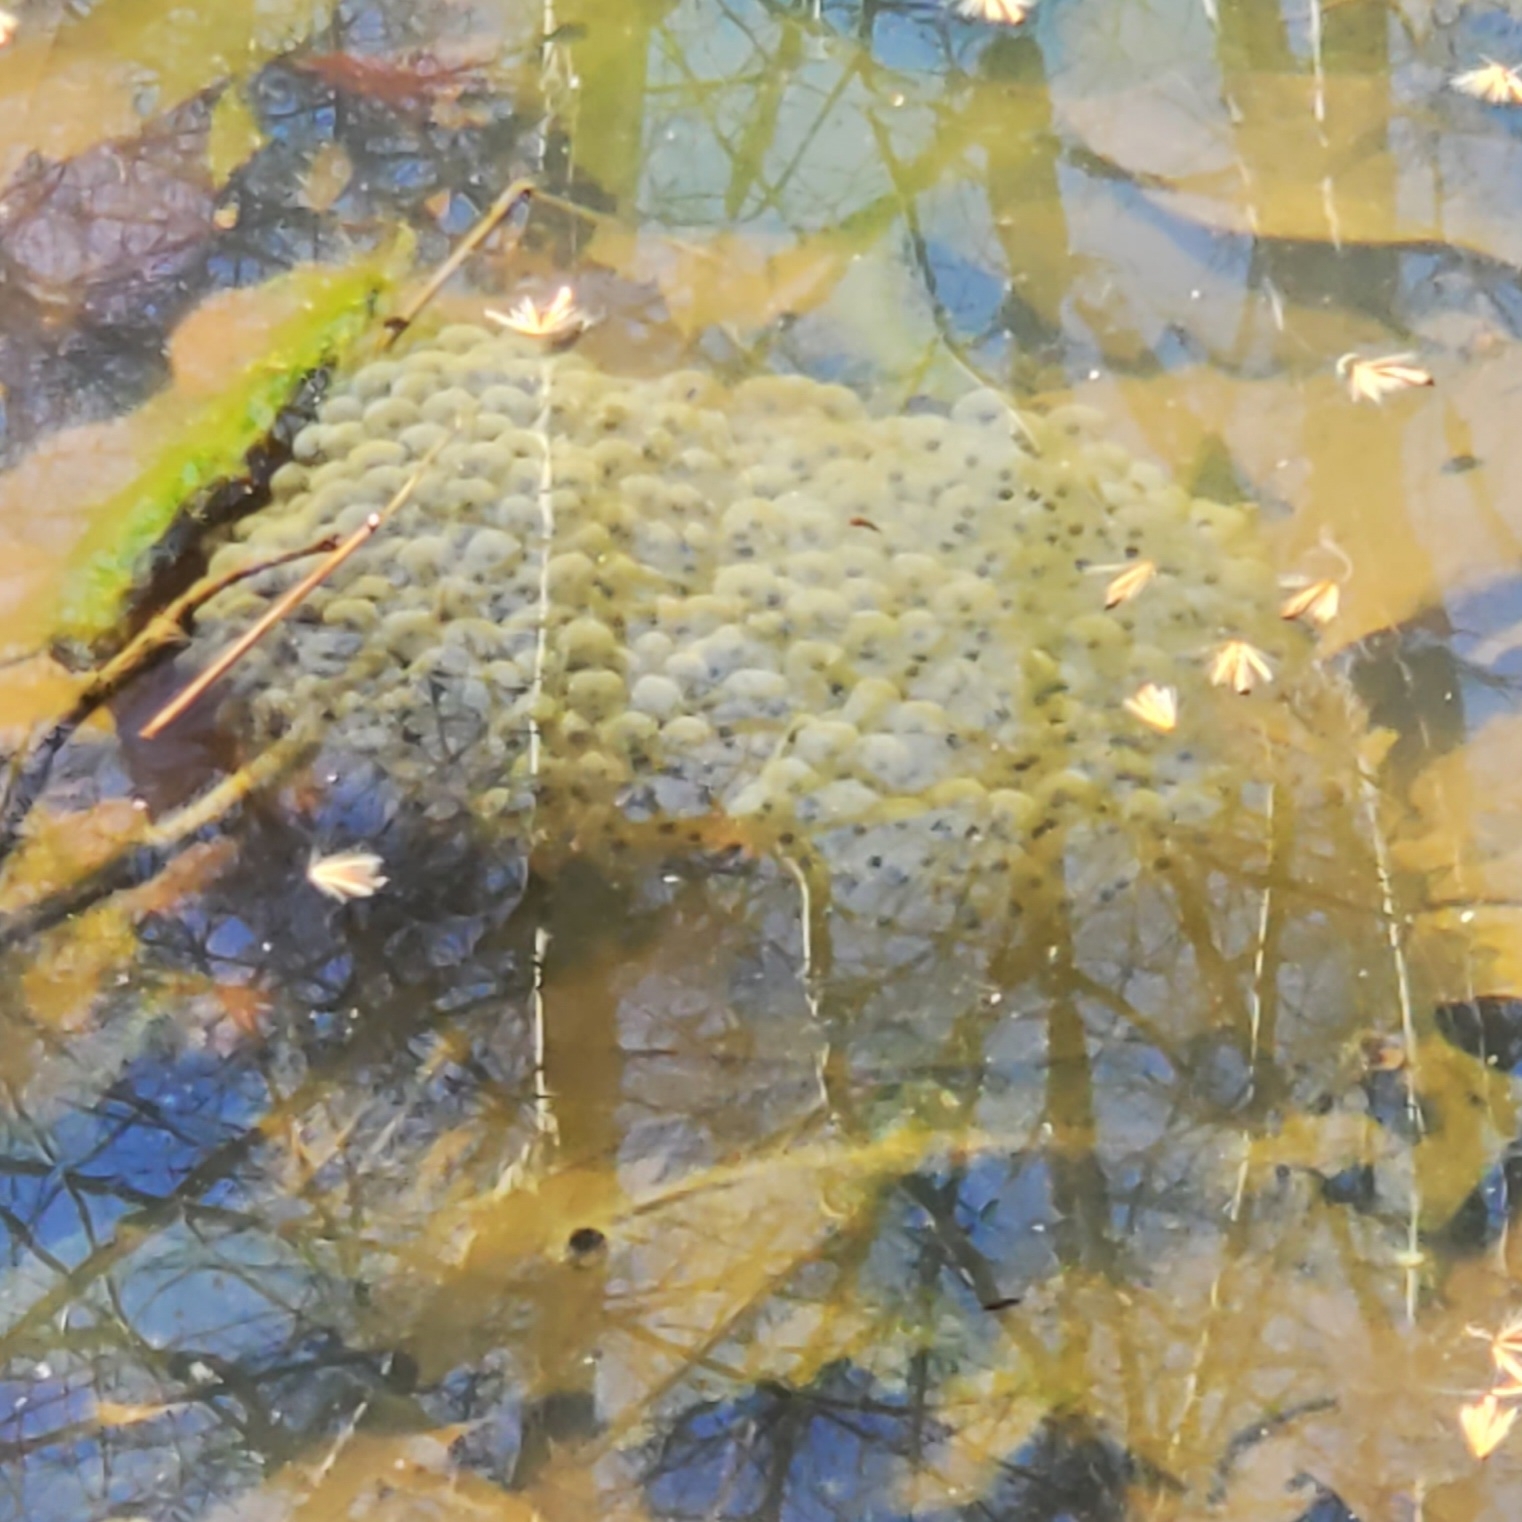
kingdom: Animalia
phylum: Chordata
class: Amphibia
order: Anura
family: Ranidae
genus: Lithobates
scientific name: Lithobates sylvaticus
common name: Wood frog
